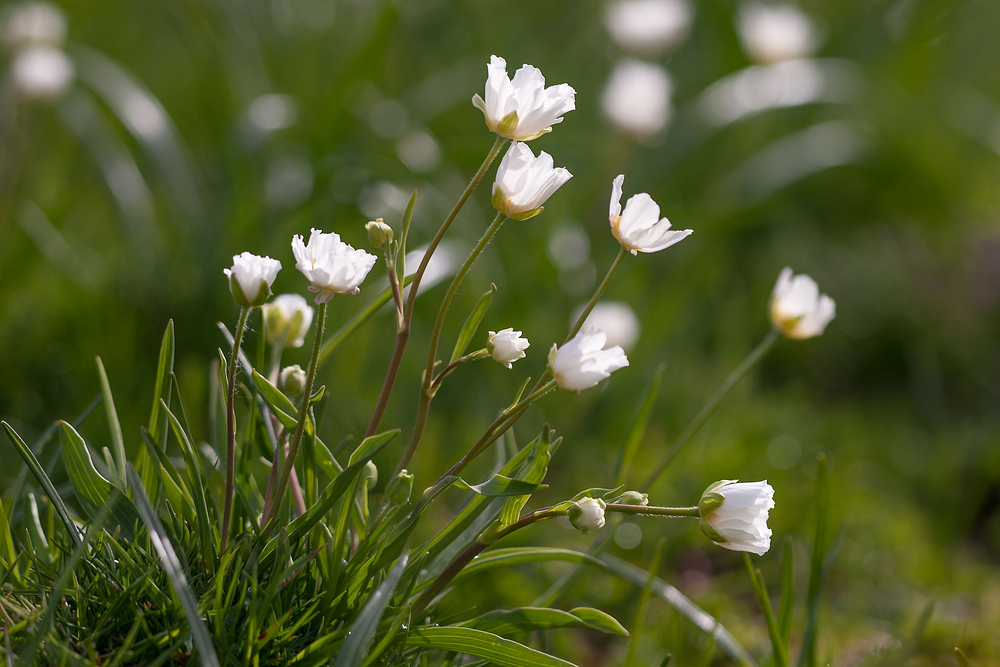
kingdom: Plantae
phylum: Tracheophyta
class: Magnoliopsida
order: Ranunculales
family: Ranunculaceae
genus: Ranunculus
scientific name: Ranunculus kuepferi
